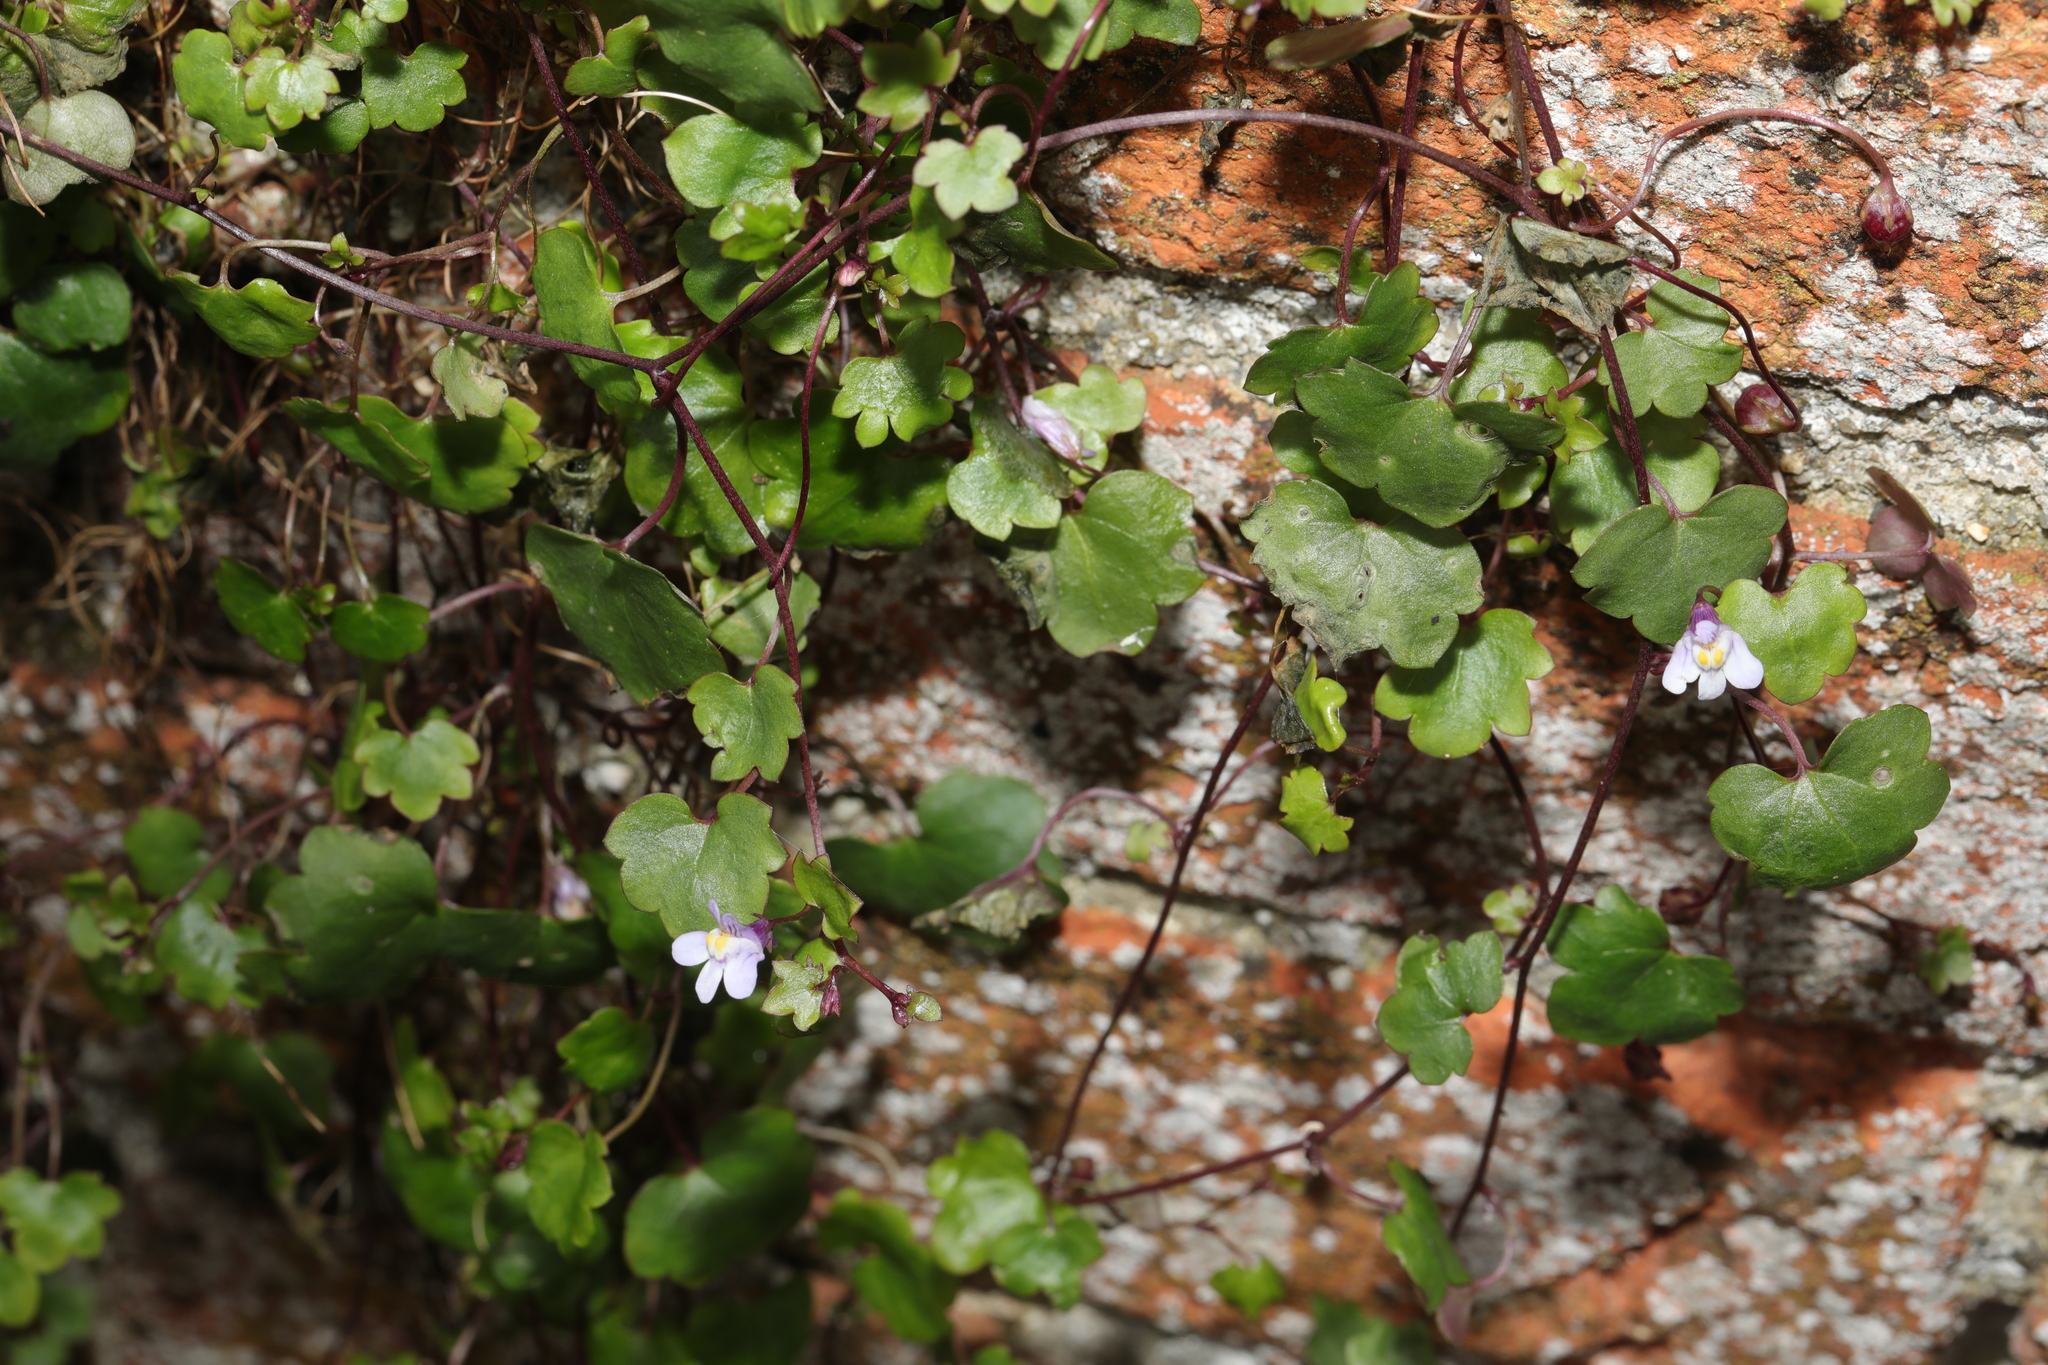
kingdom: Plantae
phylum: Tracheophyta
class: Magnoliopsida
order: Lamiales
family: Plantaginaceae
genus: Cymbalaria
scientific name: Cymbalaria muralis
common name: Ivy-leaved toadflax
